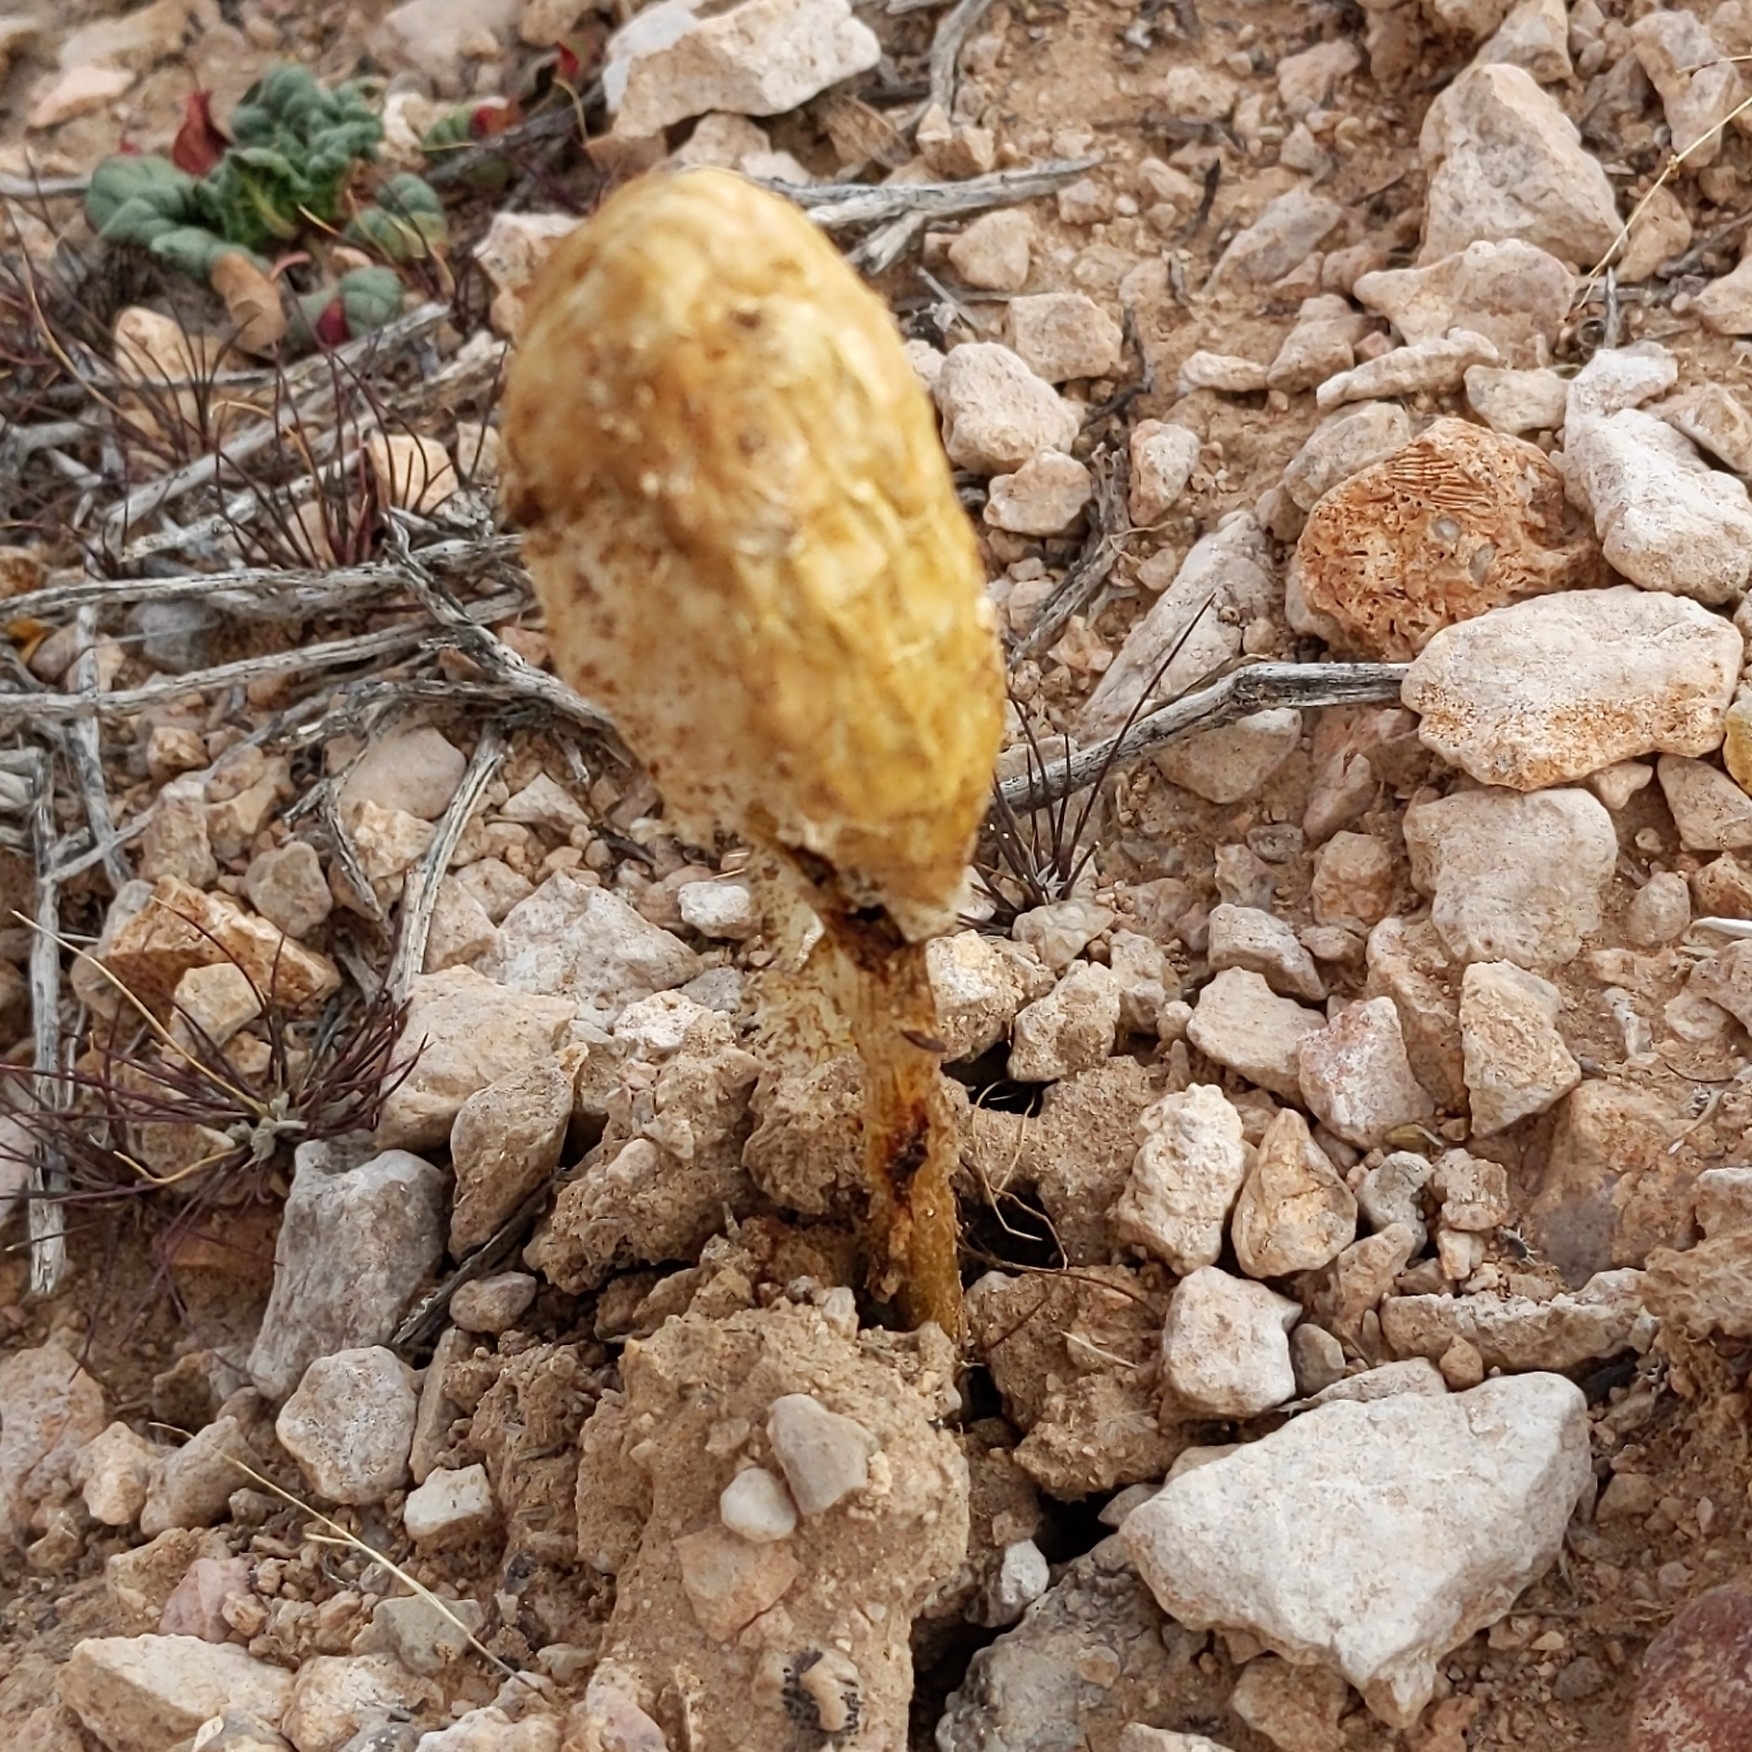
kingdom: Fungi
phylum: Basidiomycota
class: Agaricomycetes
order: Agaricales
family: Agaricaceae
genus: Podaxis
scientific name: Podaxis pistillaris
